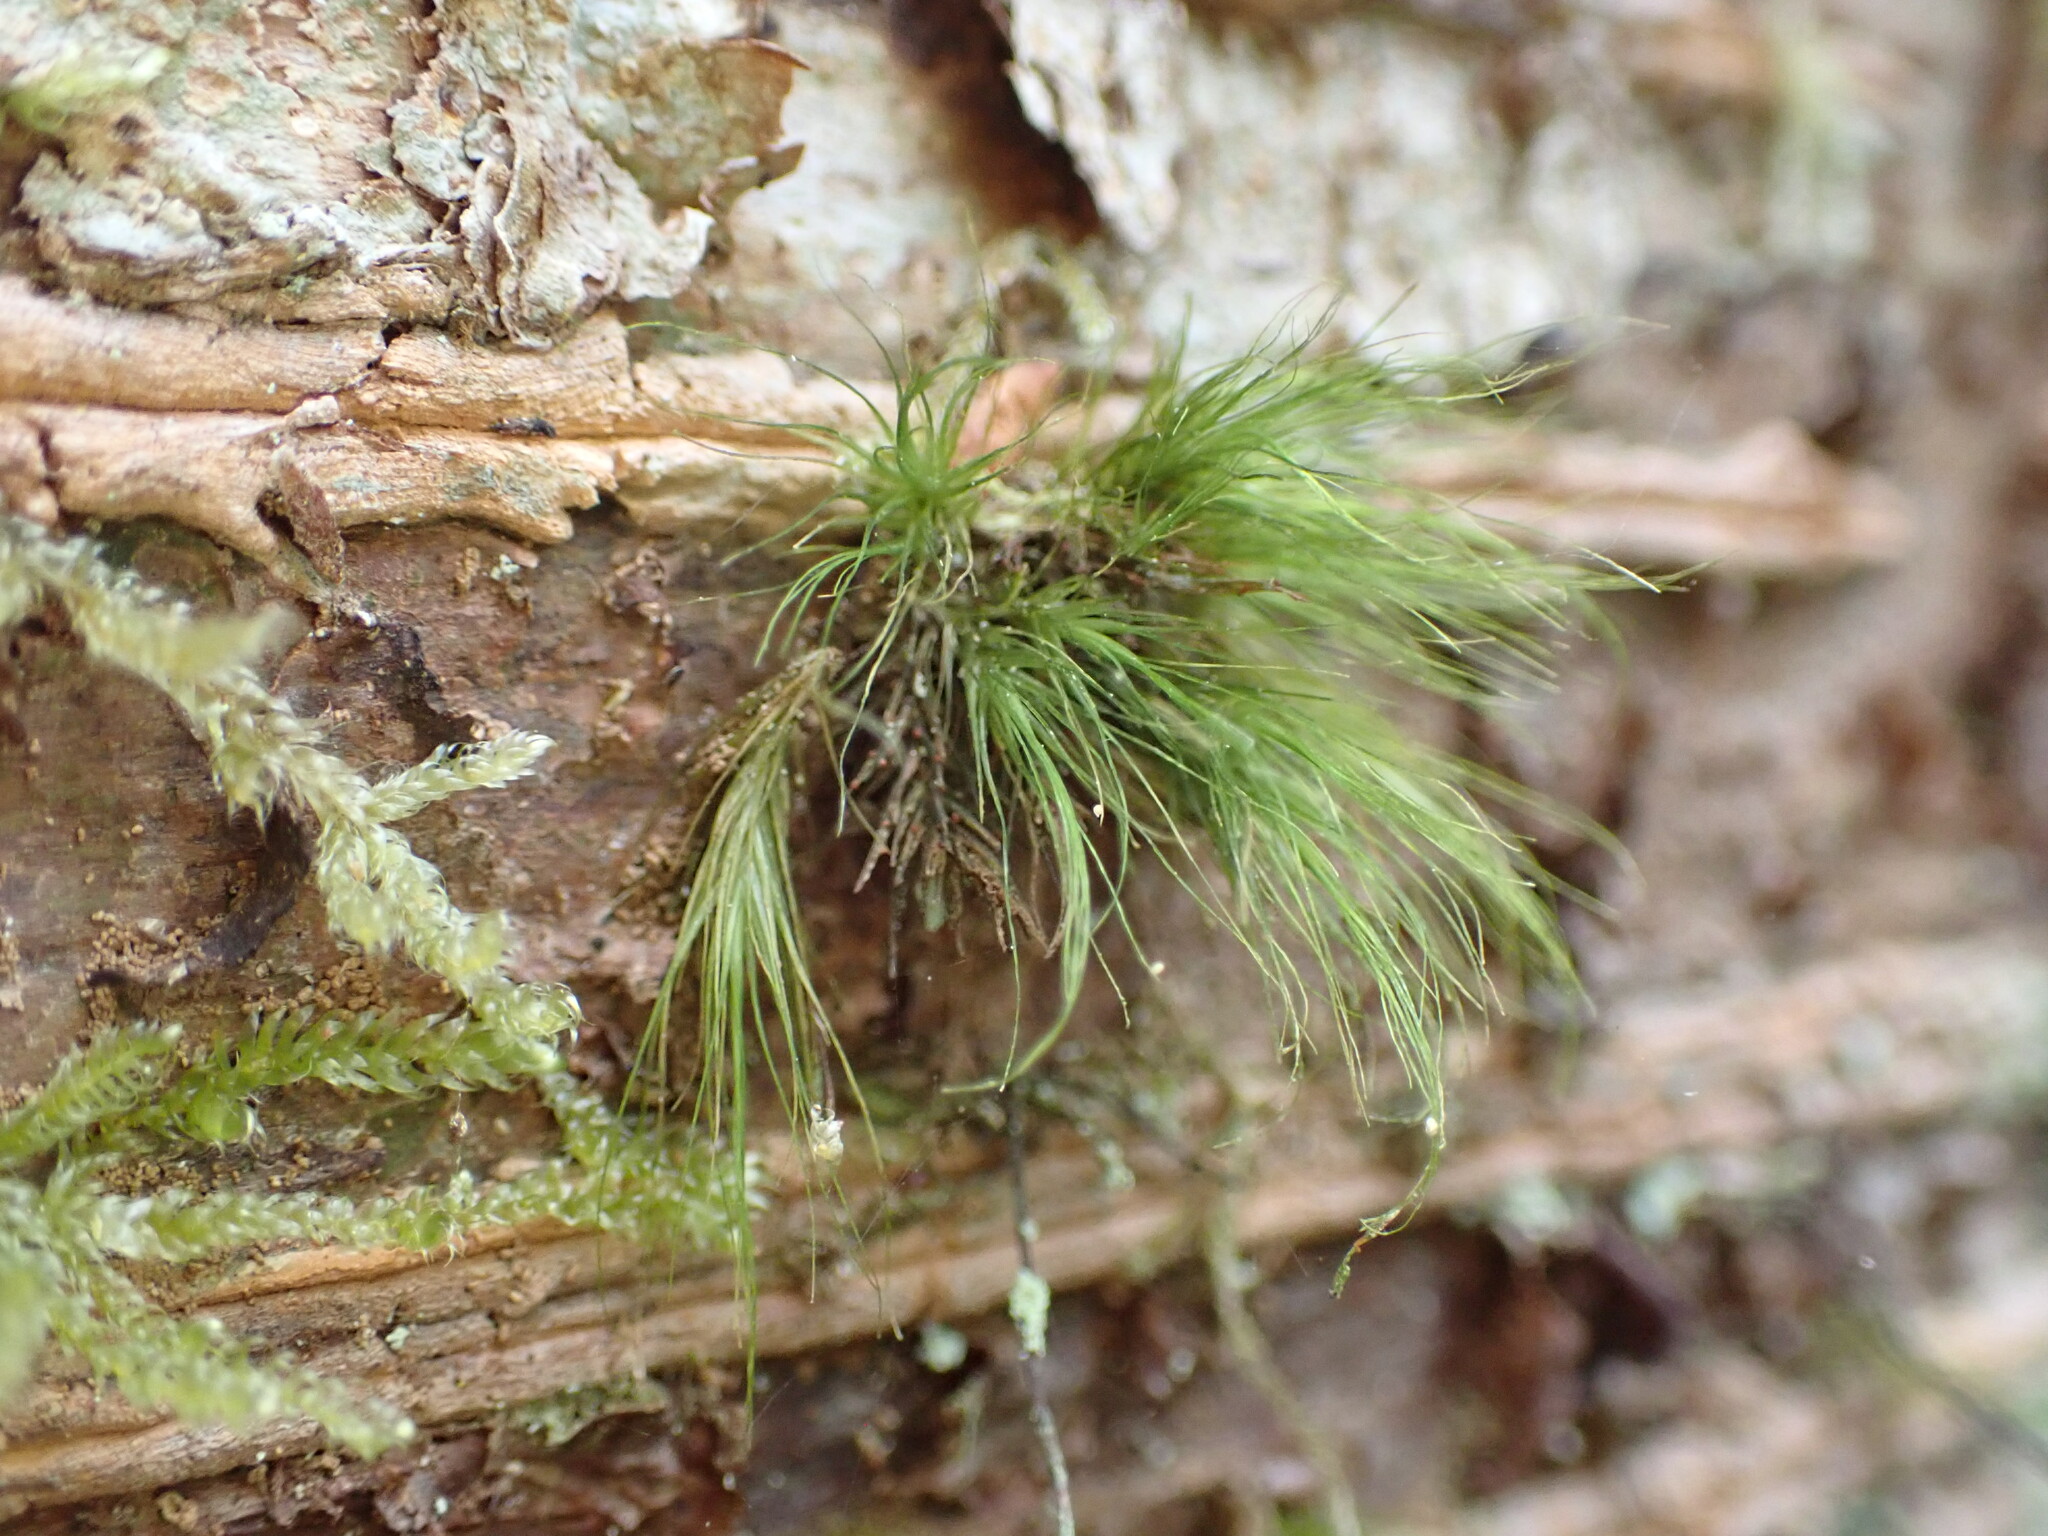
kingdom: Plantae
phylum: Bryophyta
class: Bryopsida
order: Dicranales
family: Dicranaceae
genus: Dicranoloma
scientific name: Dicranoloma menziesii
